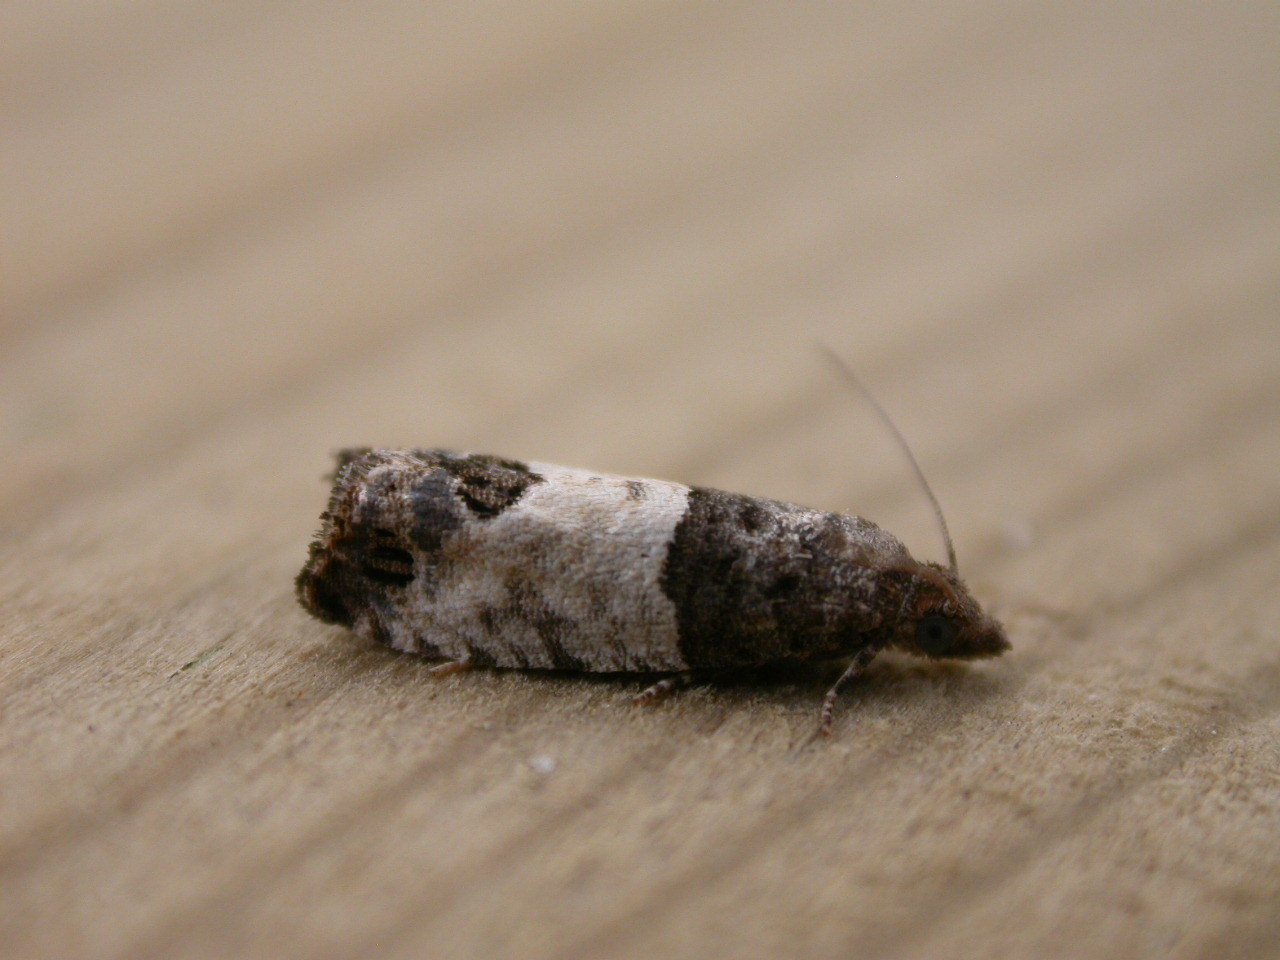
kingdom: Animalia
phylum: Arthropoda
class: Insecta
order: Lepidoptera
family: Tortricidae
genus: Spilonota
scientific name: Spilonota ocellana
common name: Bud moth
